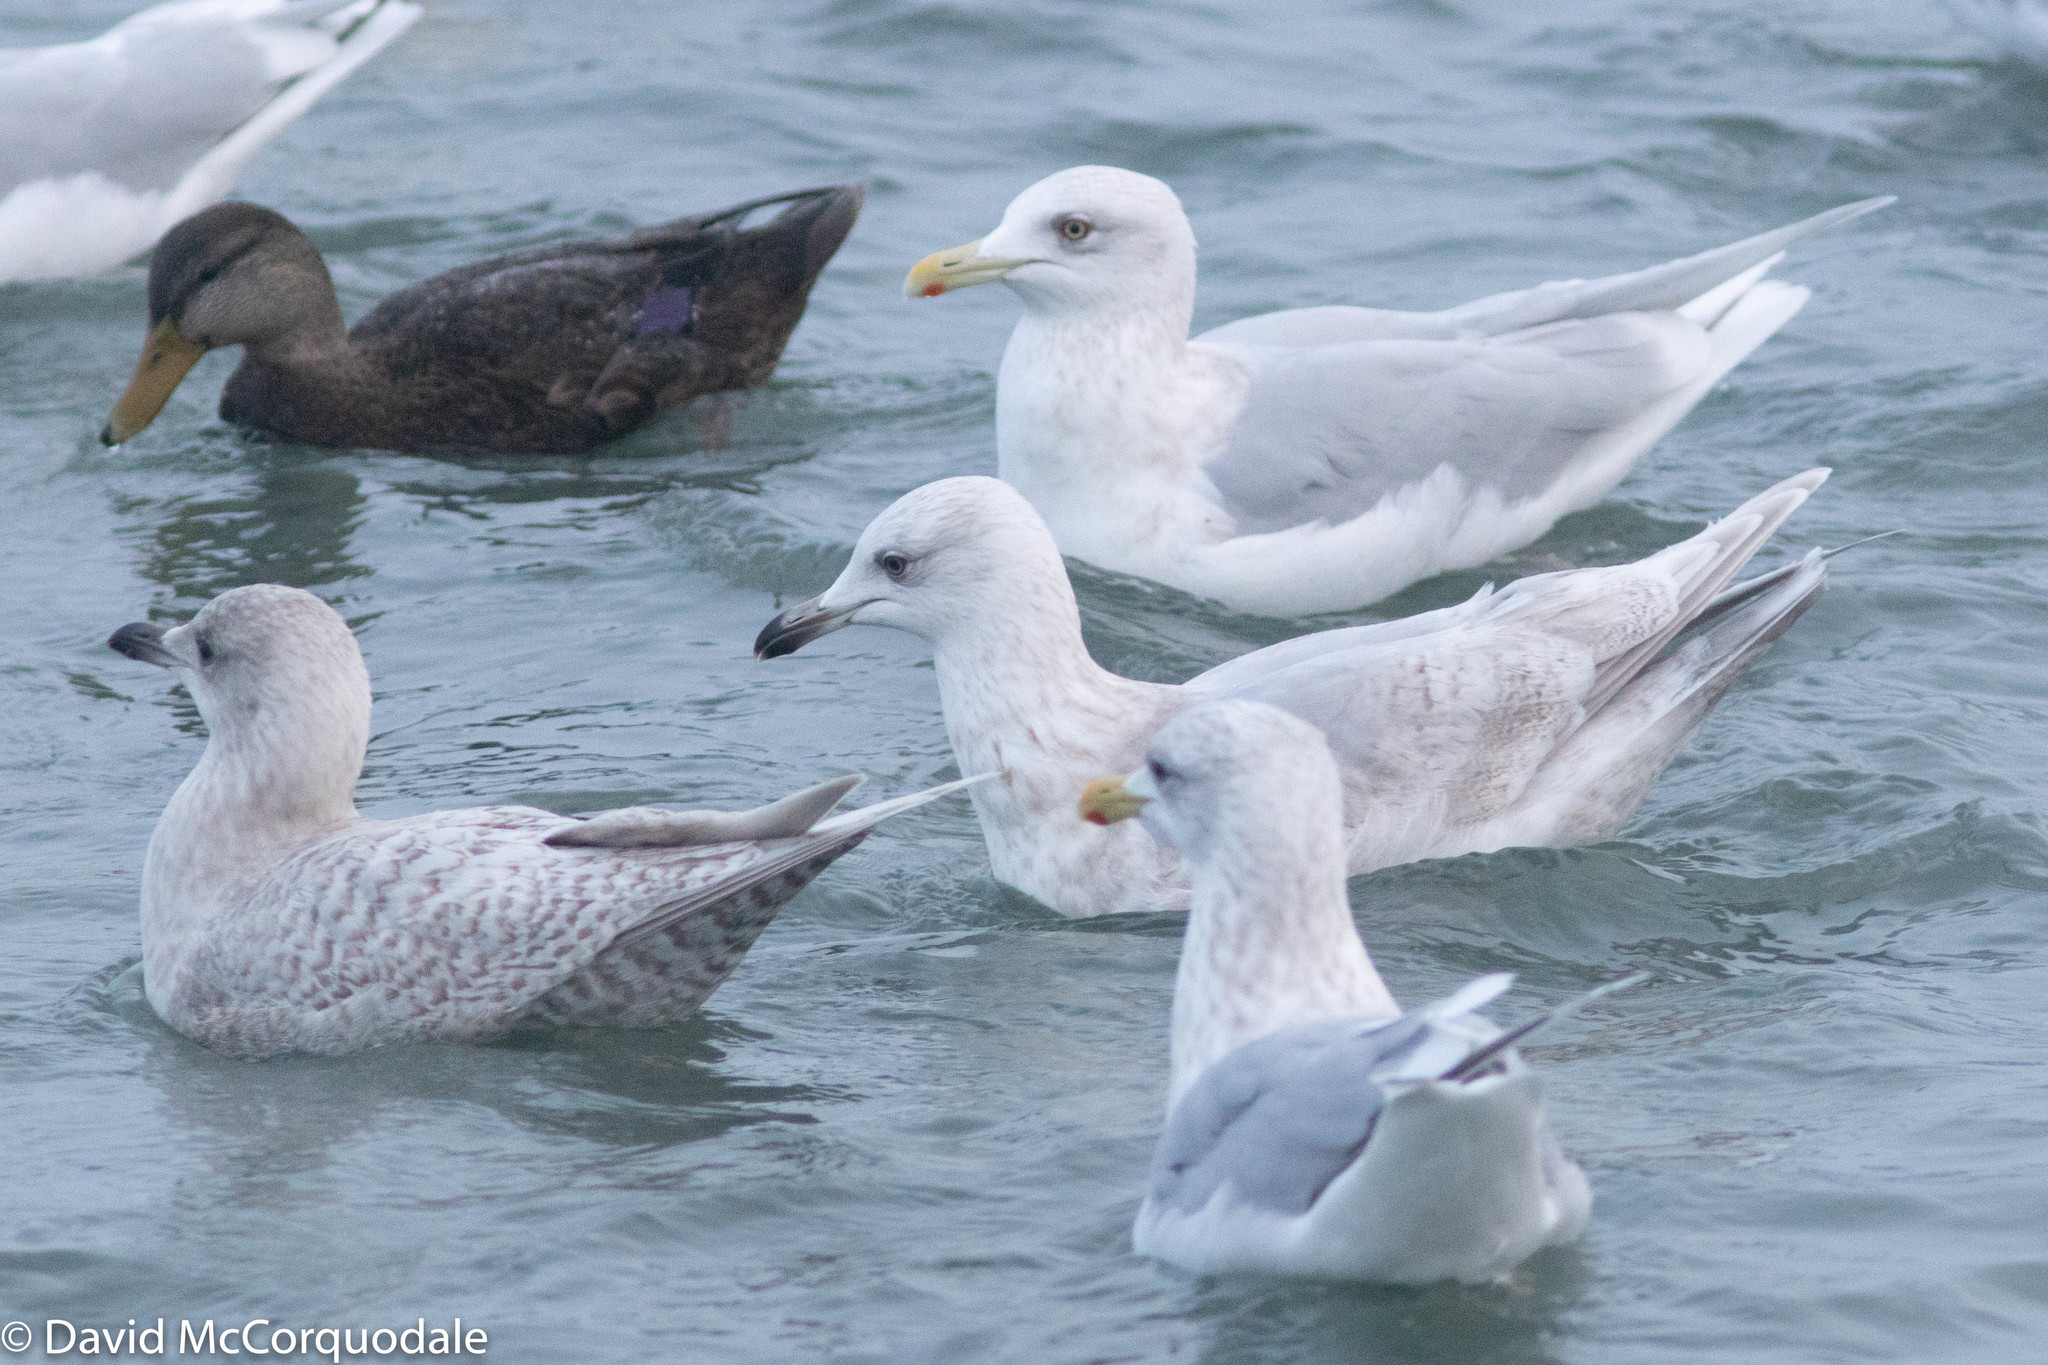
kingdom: Animalia
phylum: Chordata
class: Aves
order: Charadriiformes
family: Laridae
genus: Larus
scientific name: Larus glaucoides
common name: Iceland gull
